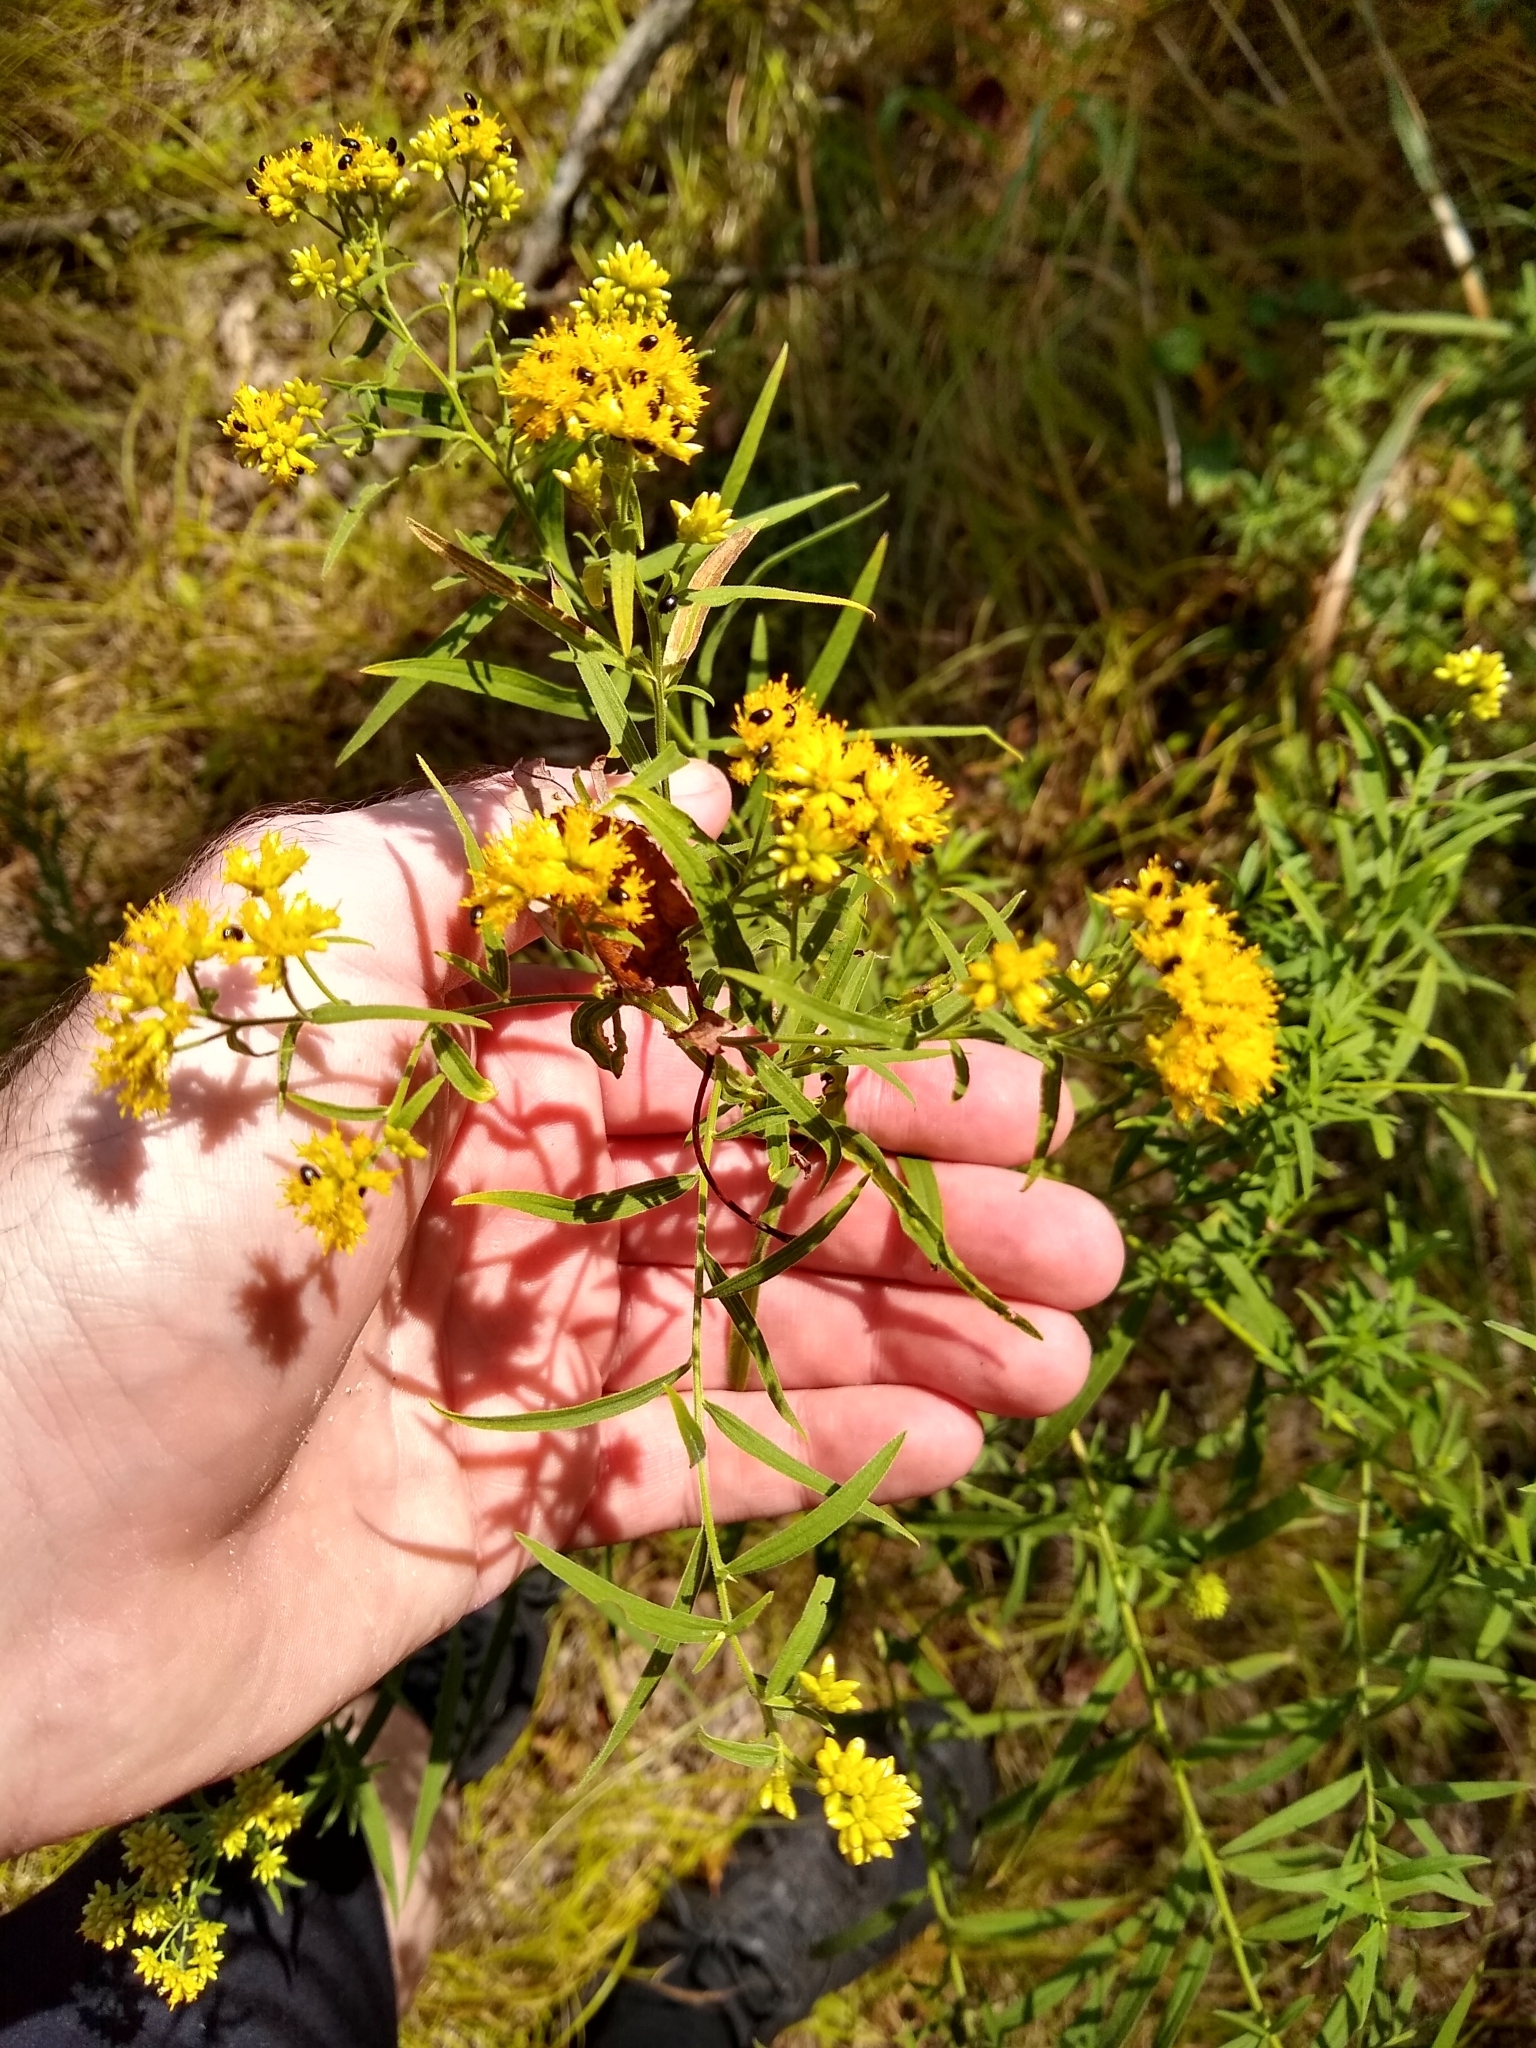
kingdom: Plantae
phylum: Tracheophyta
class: Magnoliopsida
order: Asterales
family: Asteraceae
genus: Euthamia
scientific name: Euthamia graminifolia
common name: Common goldentop
